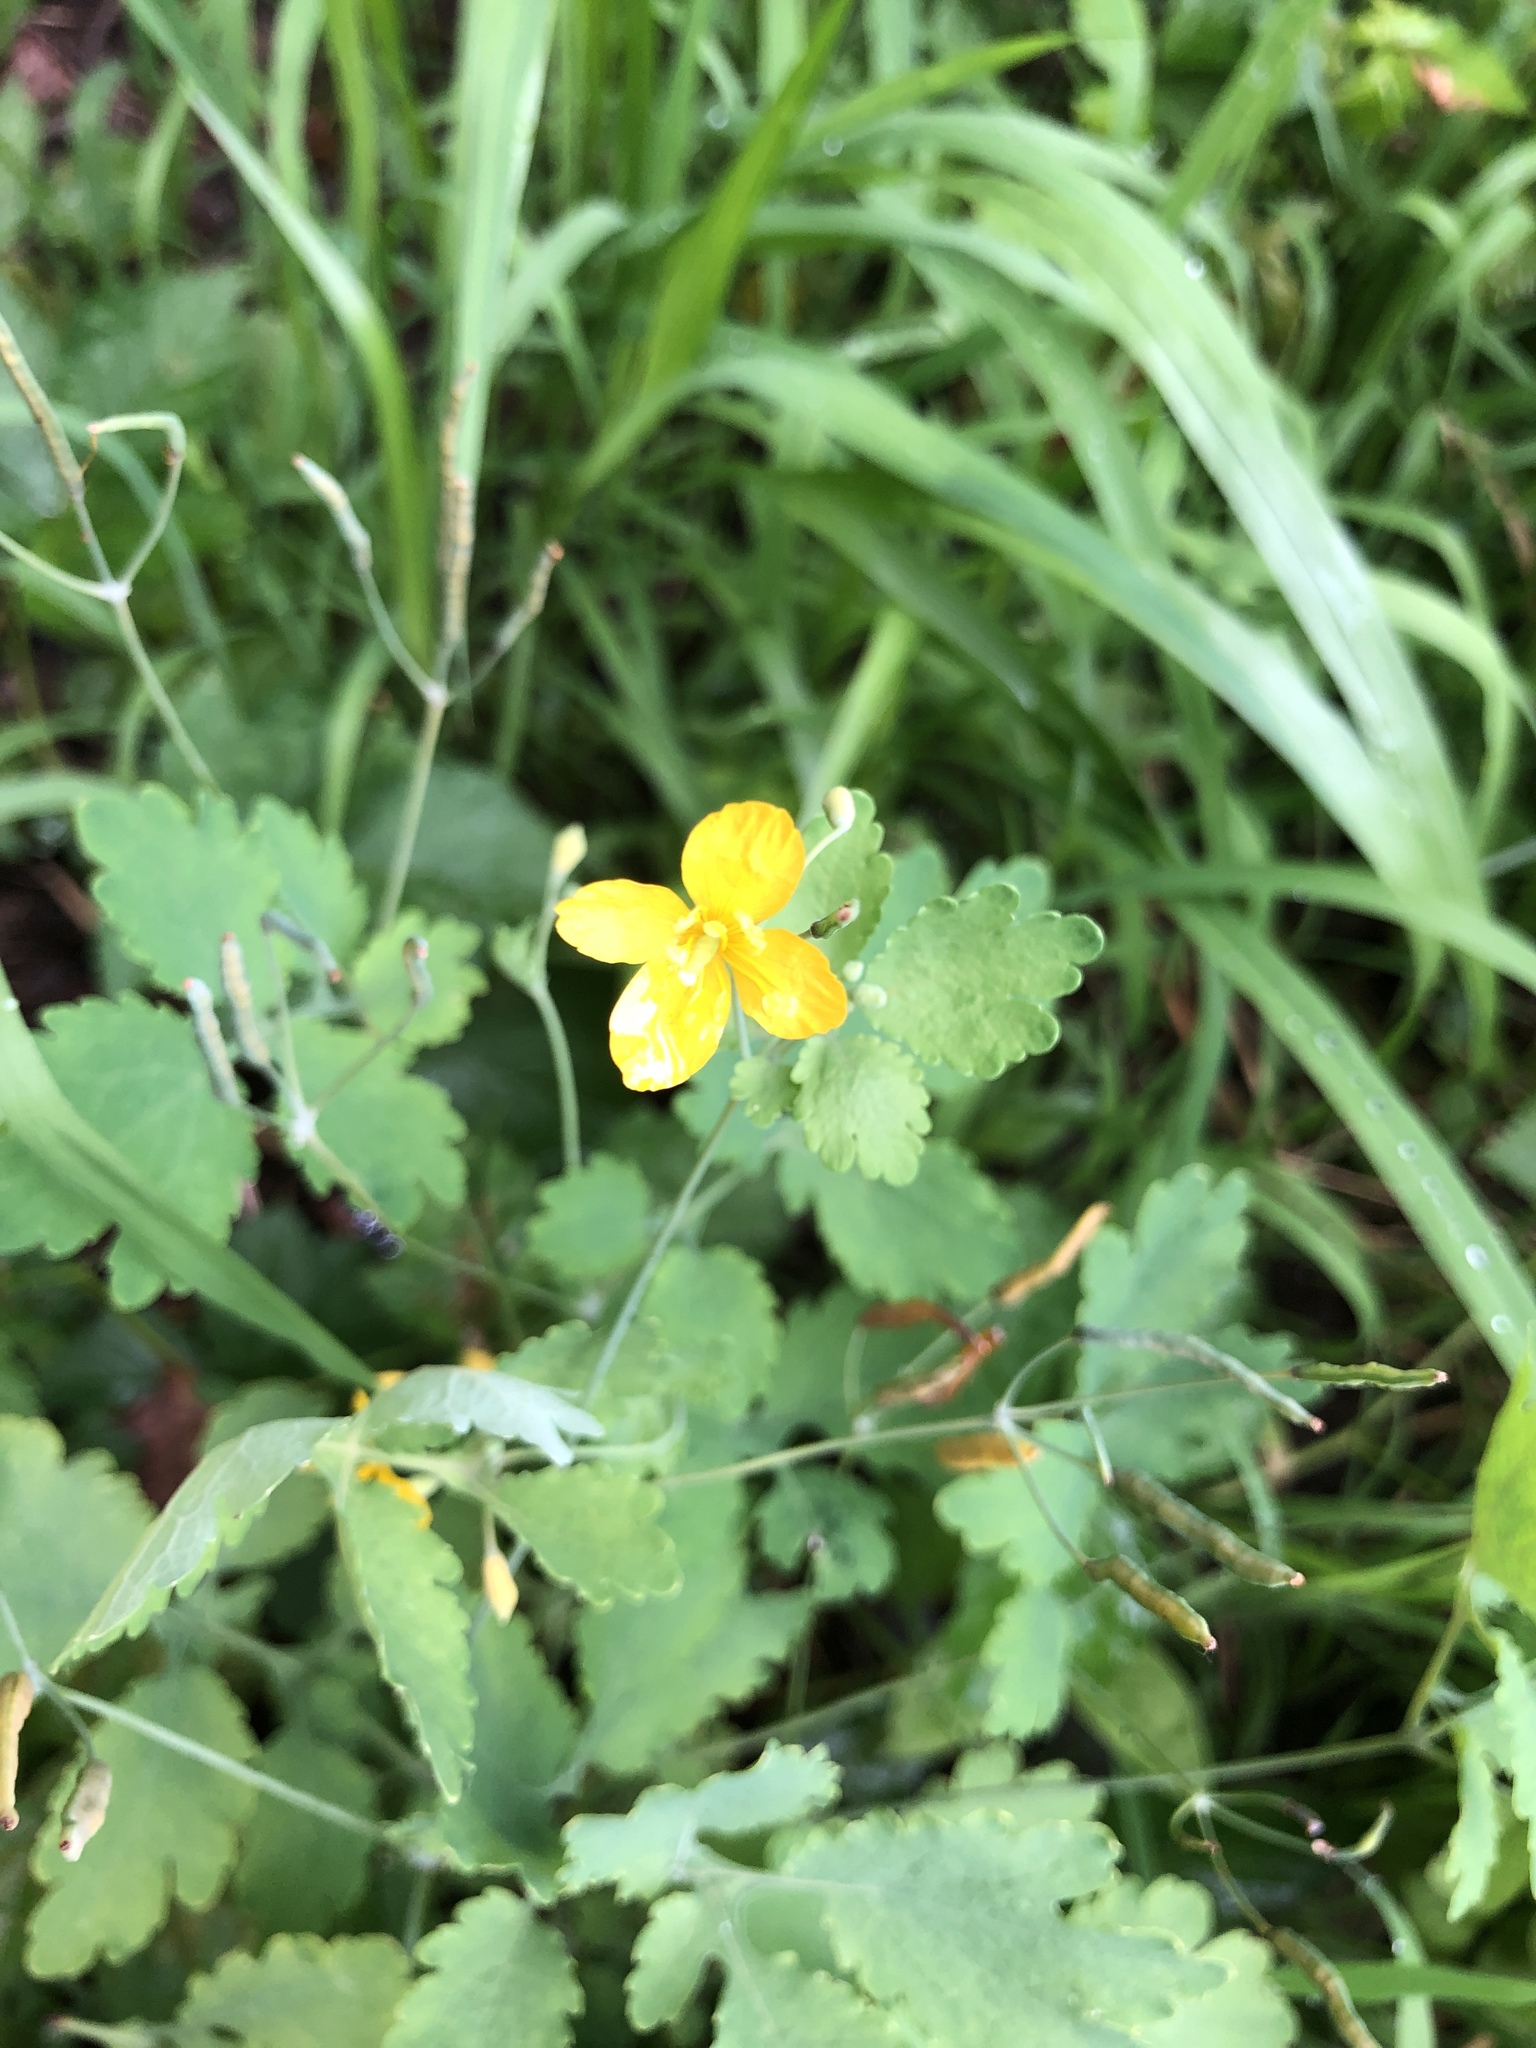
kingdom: Plantae
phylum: Tracheophyta
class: Magnoliopsida
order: Ranunculales
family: Papaveraceae
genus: Chelidonium
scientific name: Chelidonium majus
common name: Greater celandine
